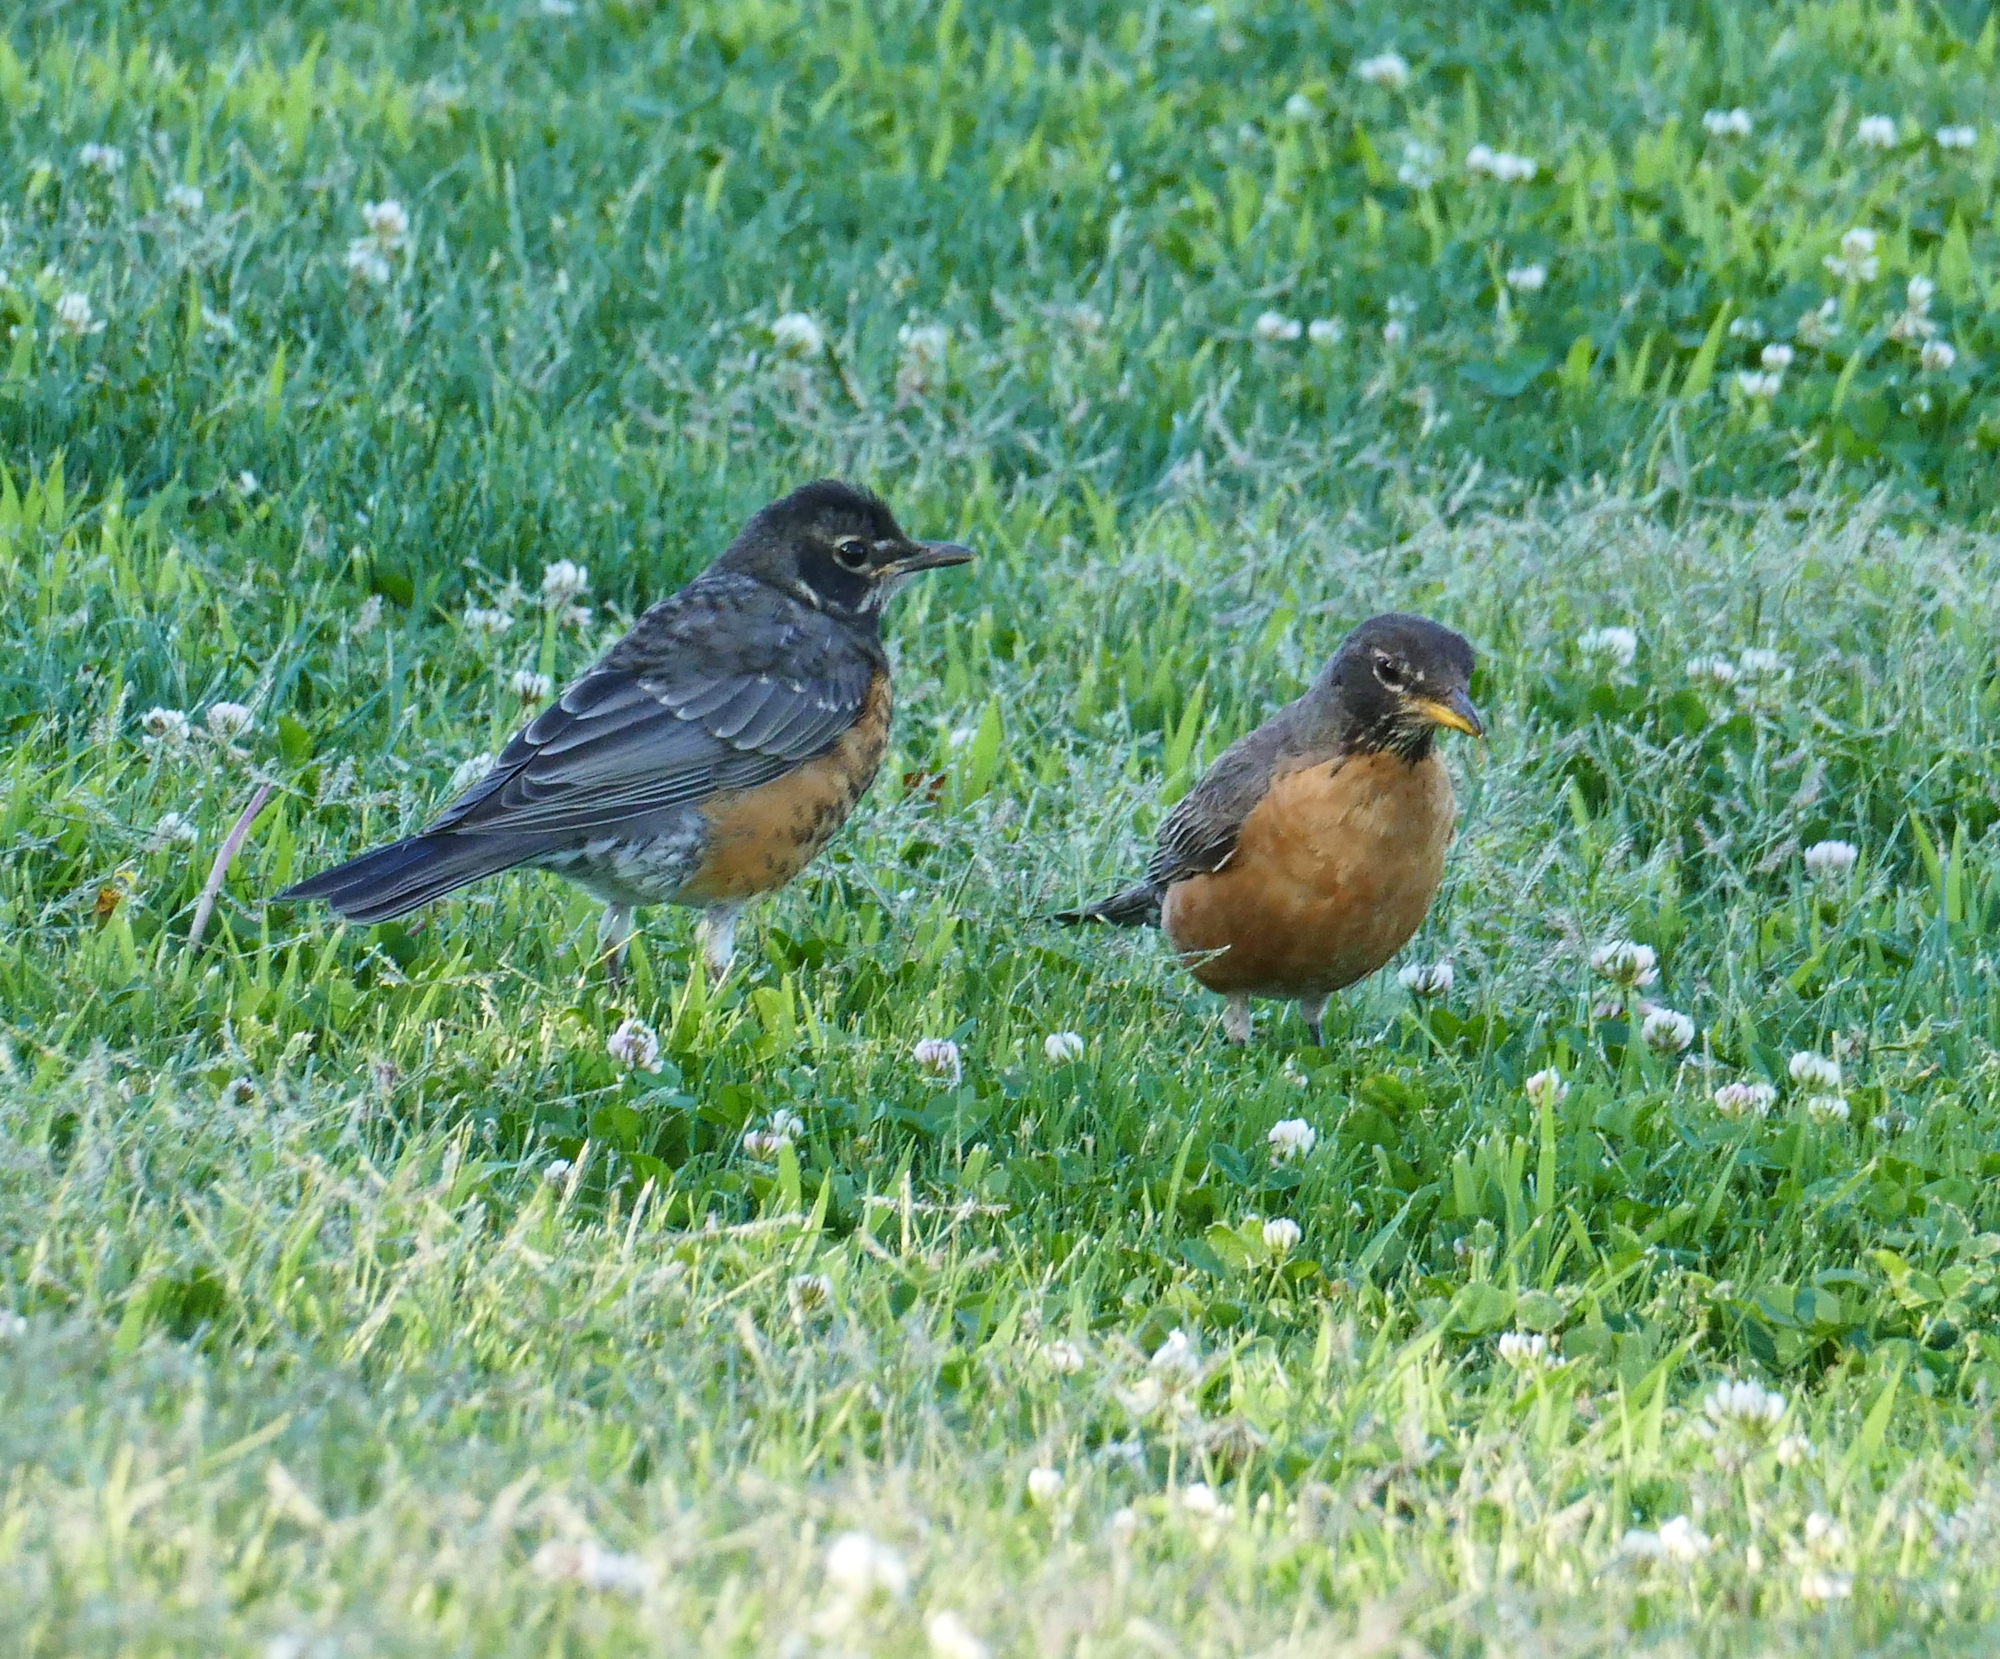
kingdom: Animalia
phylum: Chordata
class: Aves
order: Passeriformes
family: Turdidae
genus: Turdus
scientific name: Turdus migratorius
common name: American robin
